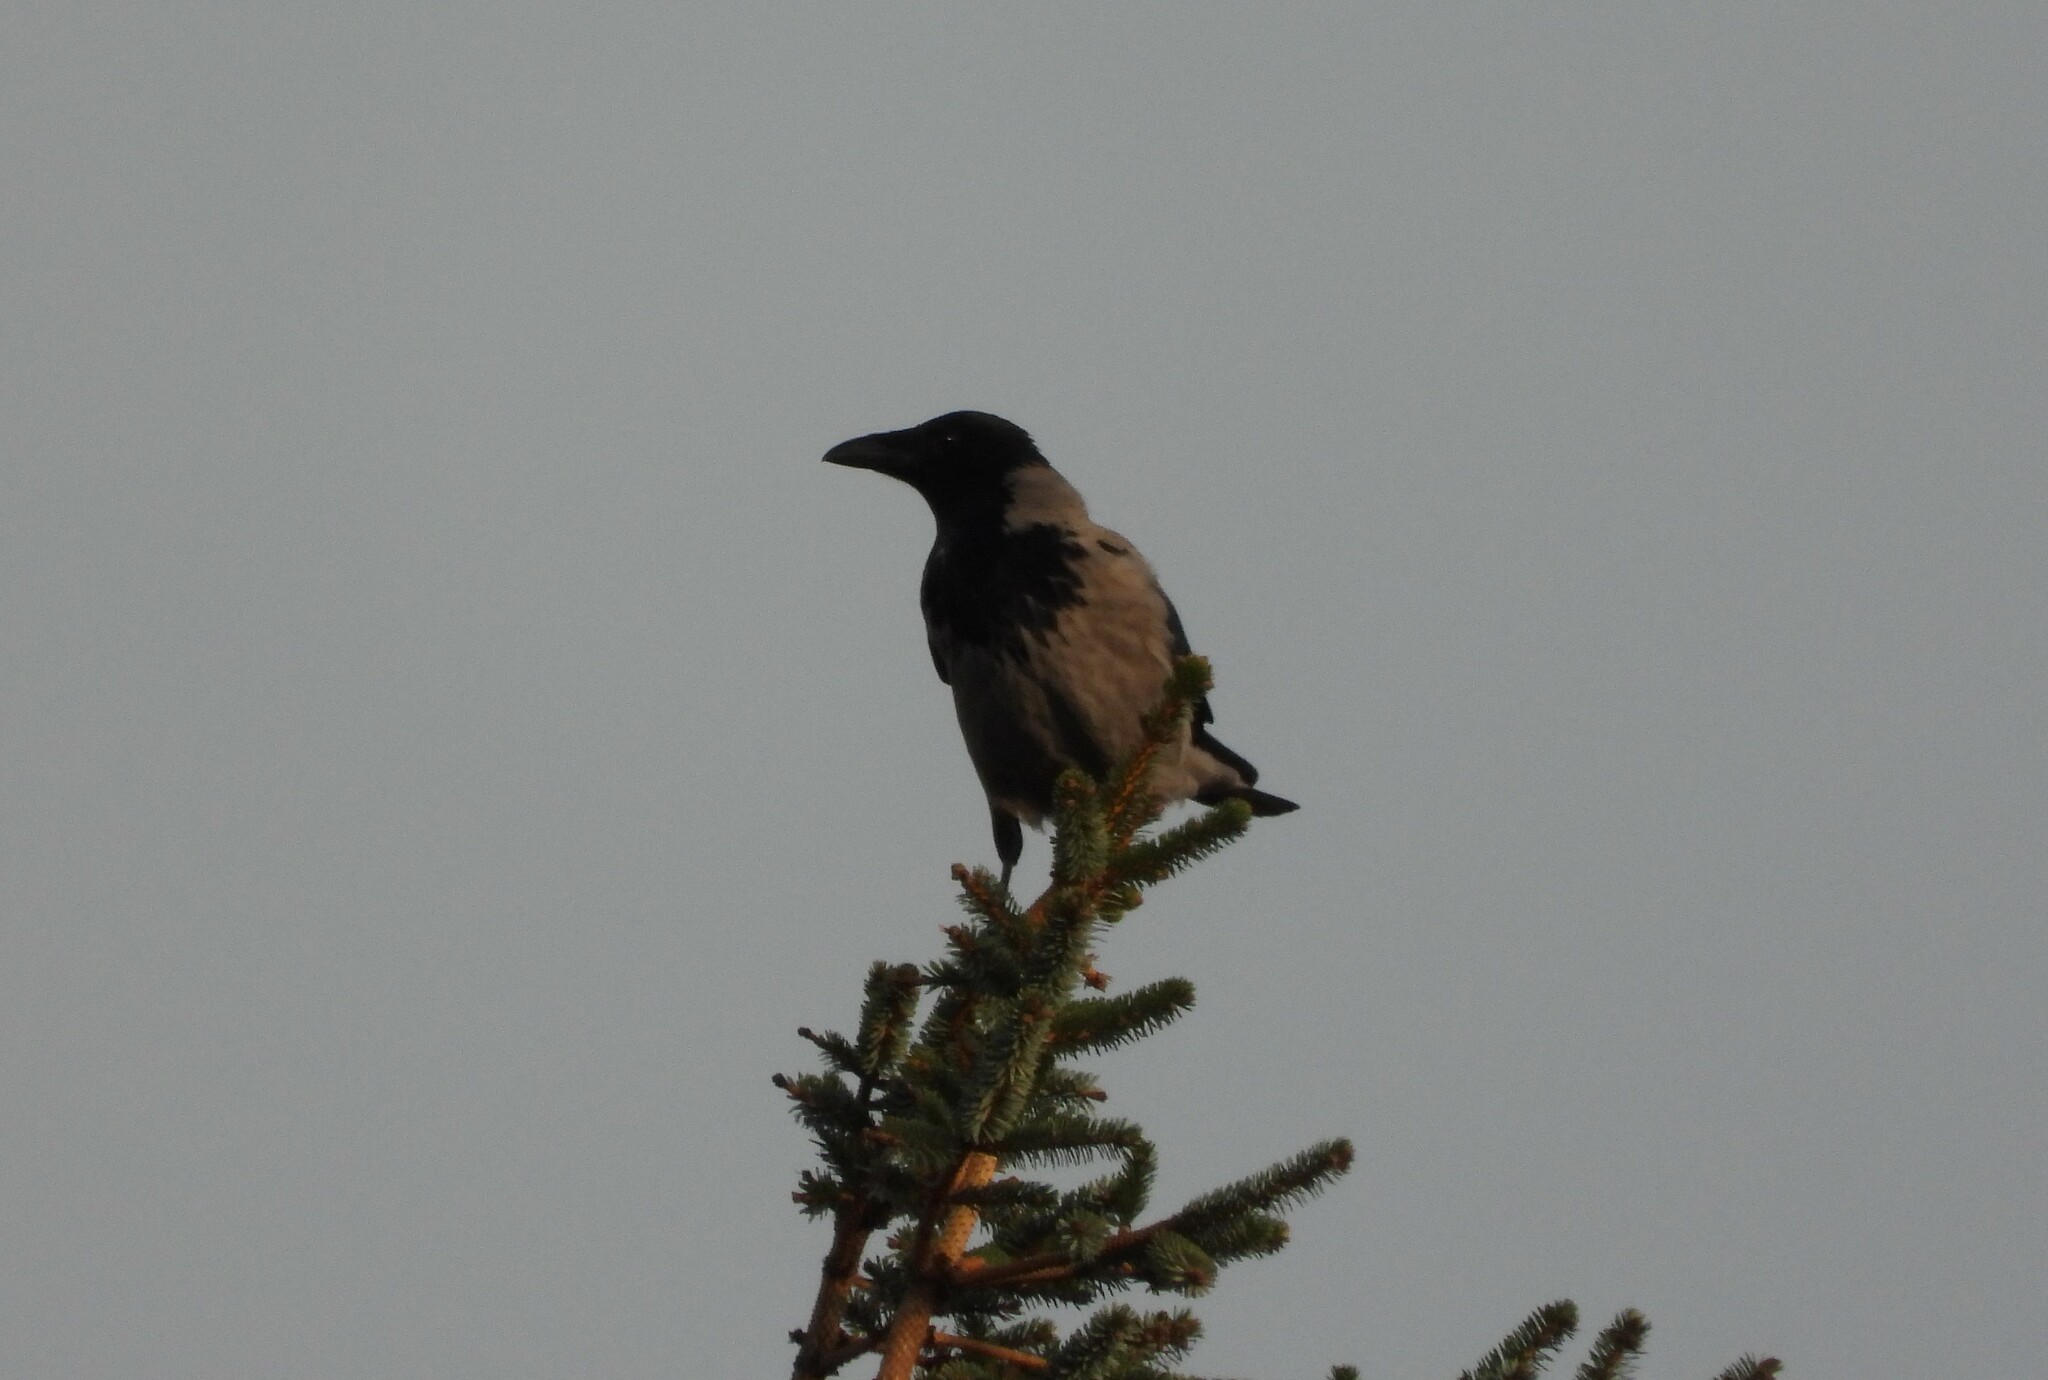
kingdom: Animalia
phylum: Chordata
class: Aves
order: Passeriformes
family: Corvidae
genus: Corvus
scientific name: Corvus cornix
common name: Hooded crow
